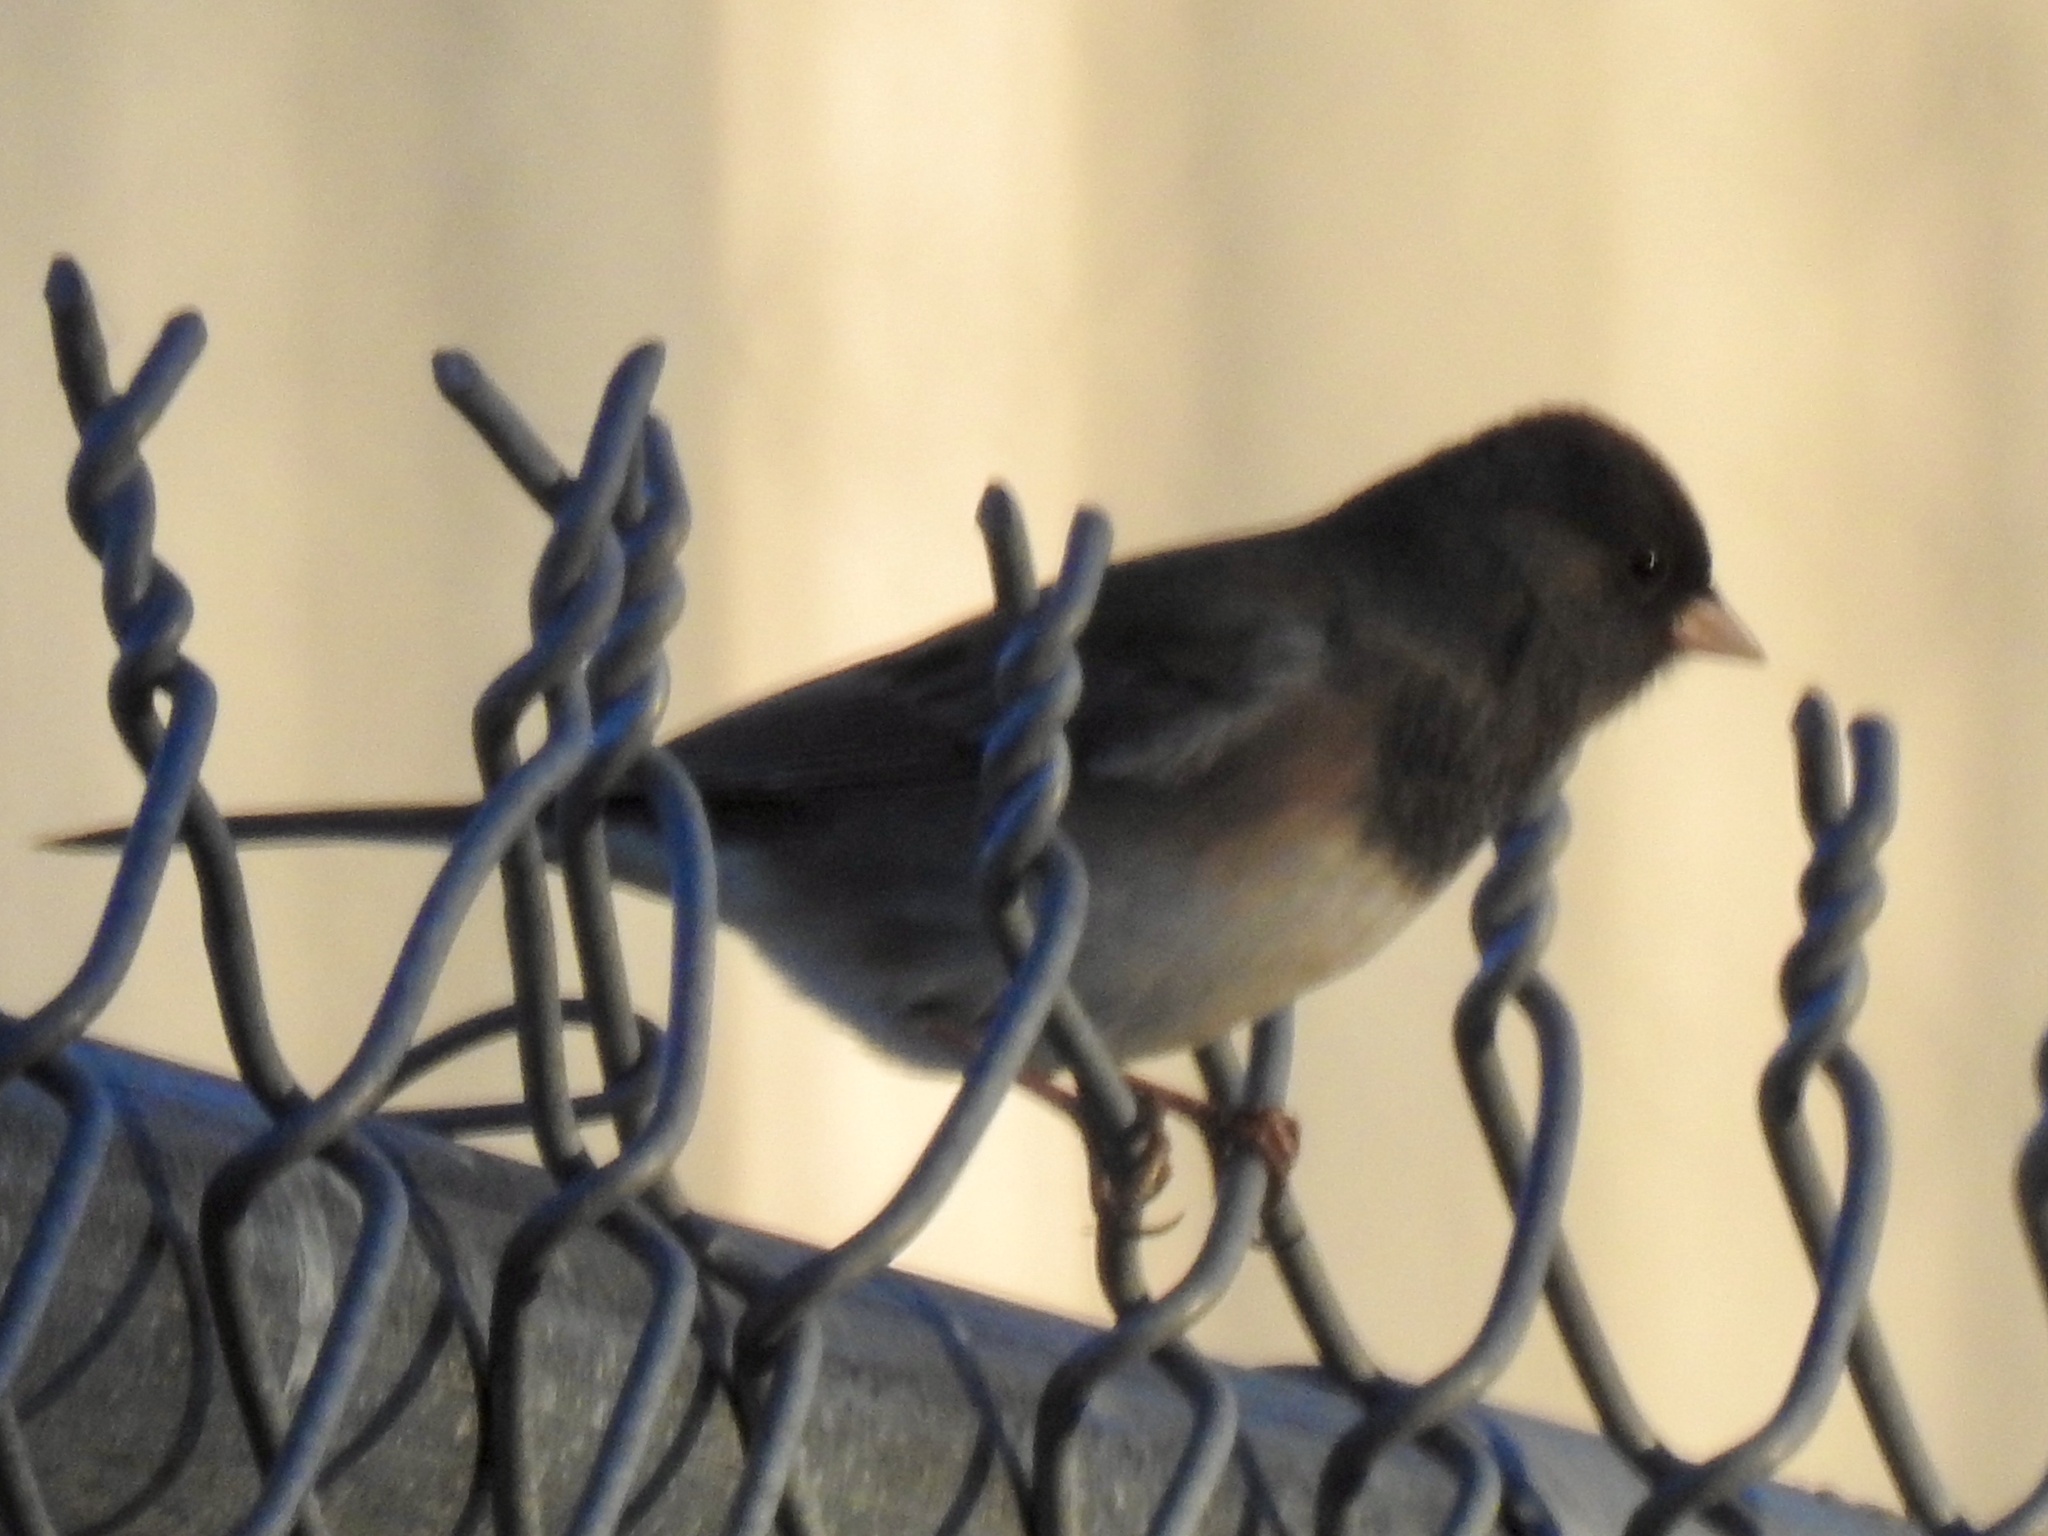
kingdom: Animalia
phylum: Chordata
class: Aves
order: Passeriformes
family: Passerellidae
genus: Junco
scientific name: Junco hyemalis
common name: Dark-eyed junco
